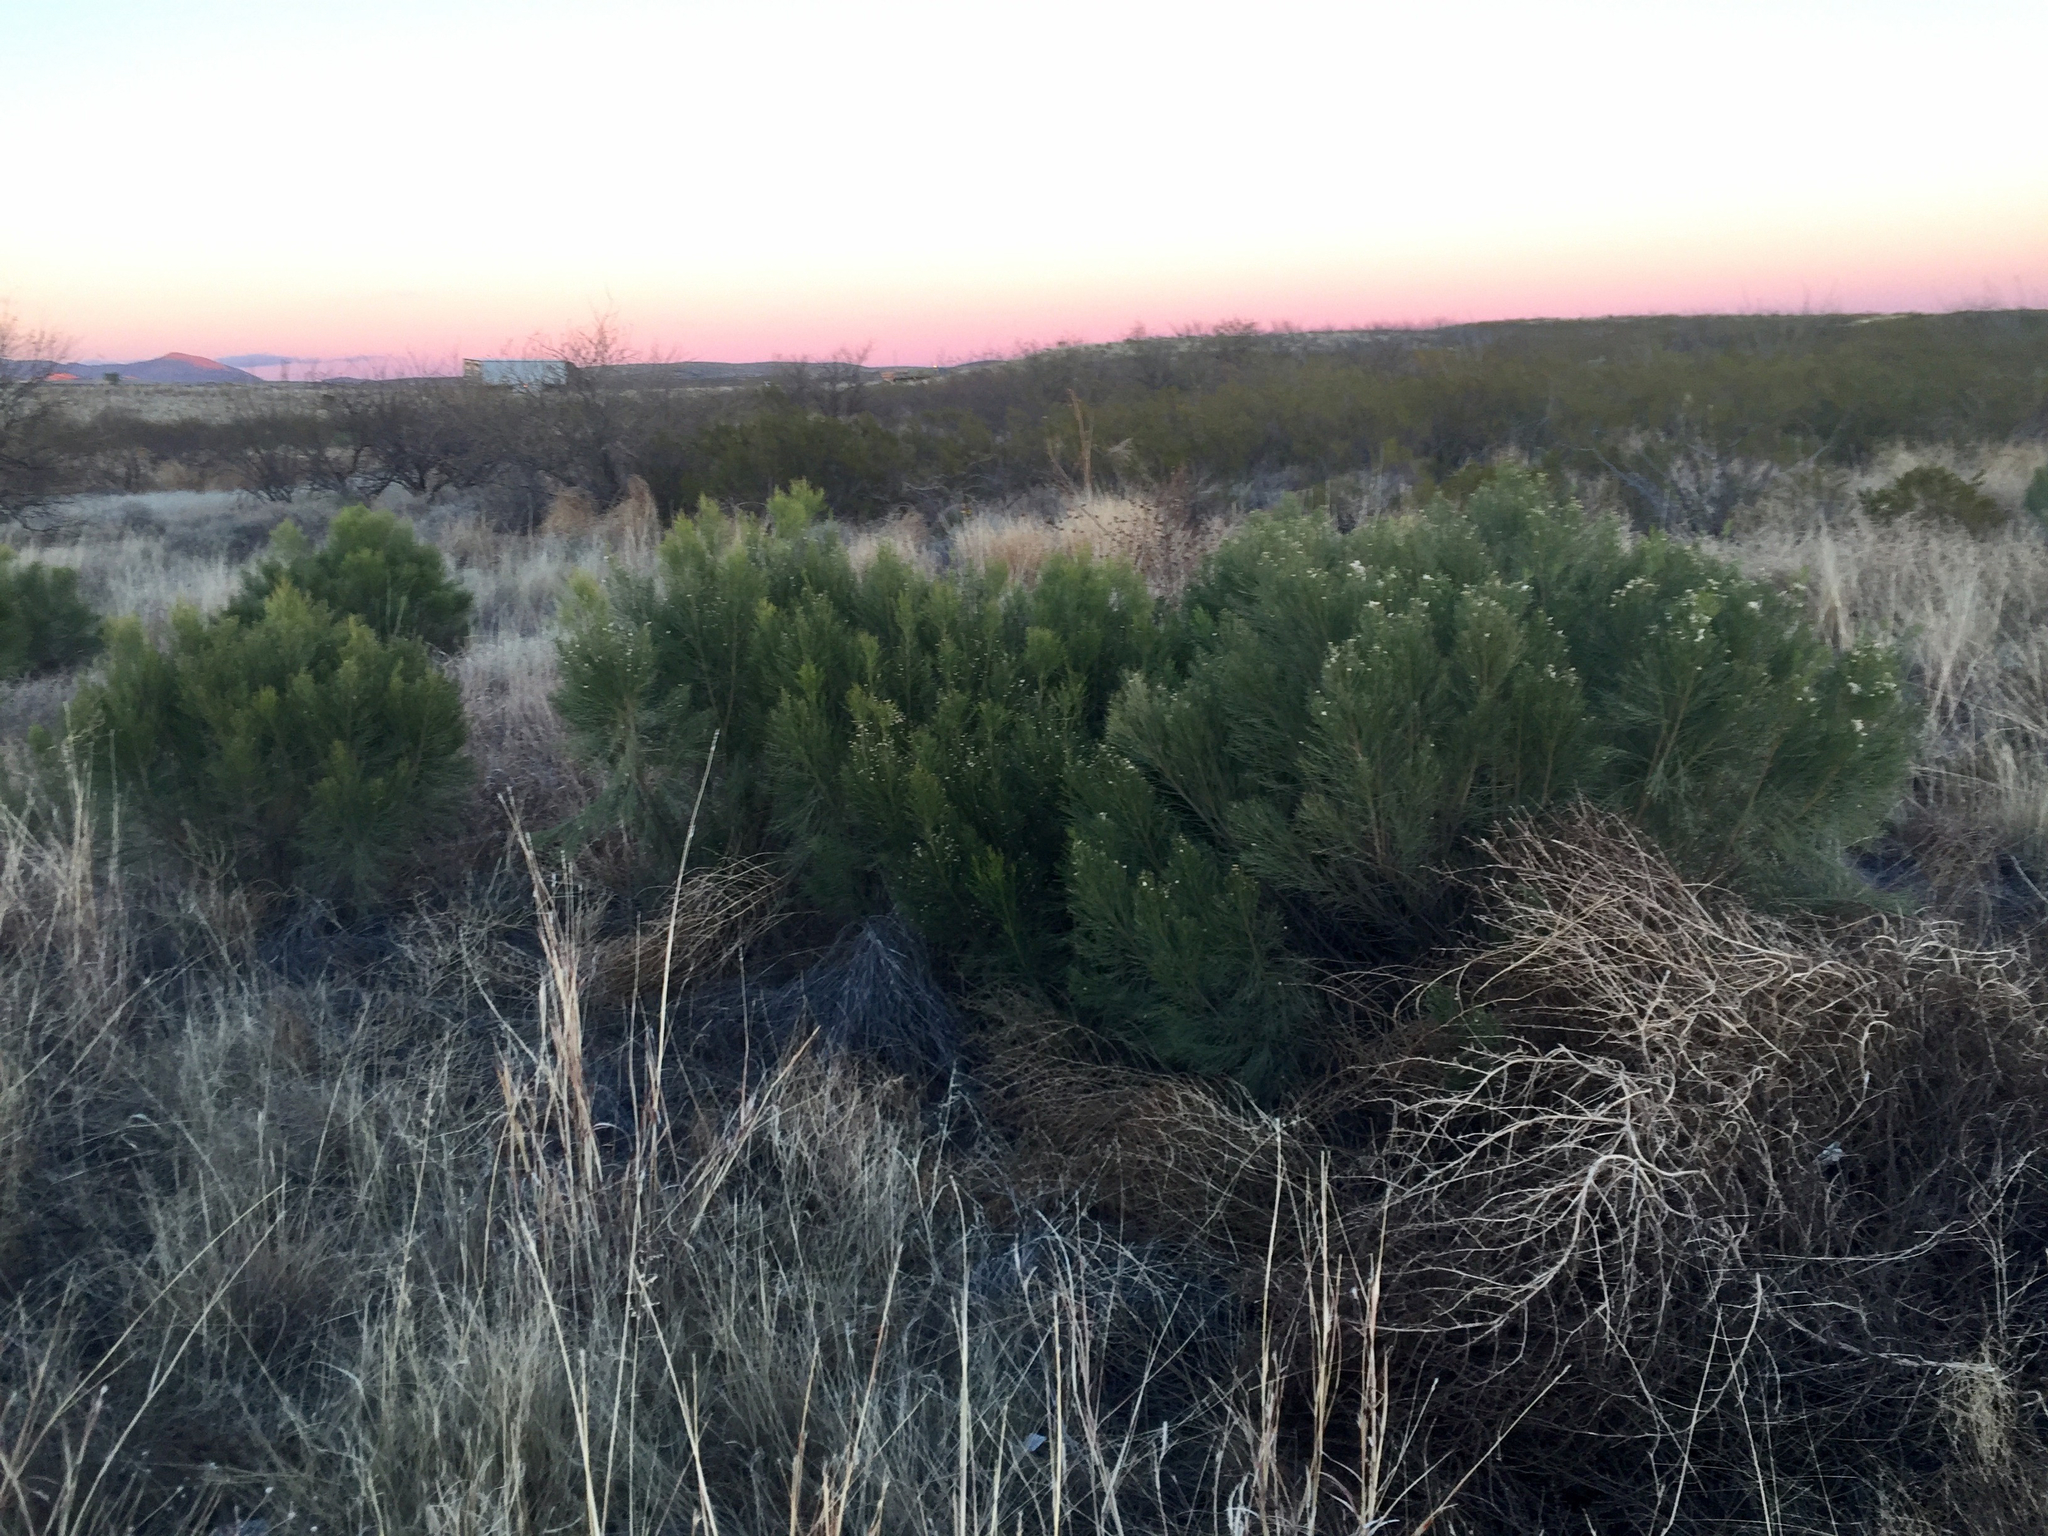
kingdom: Plantae
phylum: Tracheophyta
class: Magnoliopsida
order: Asterales
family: Asteraceae
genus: Baccharis
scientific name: Baccharis sarothroides
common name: Desert-broom
